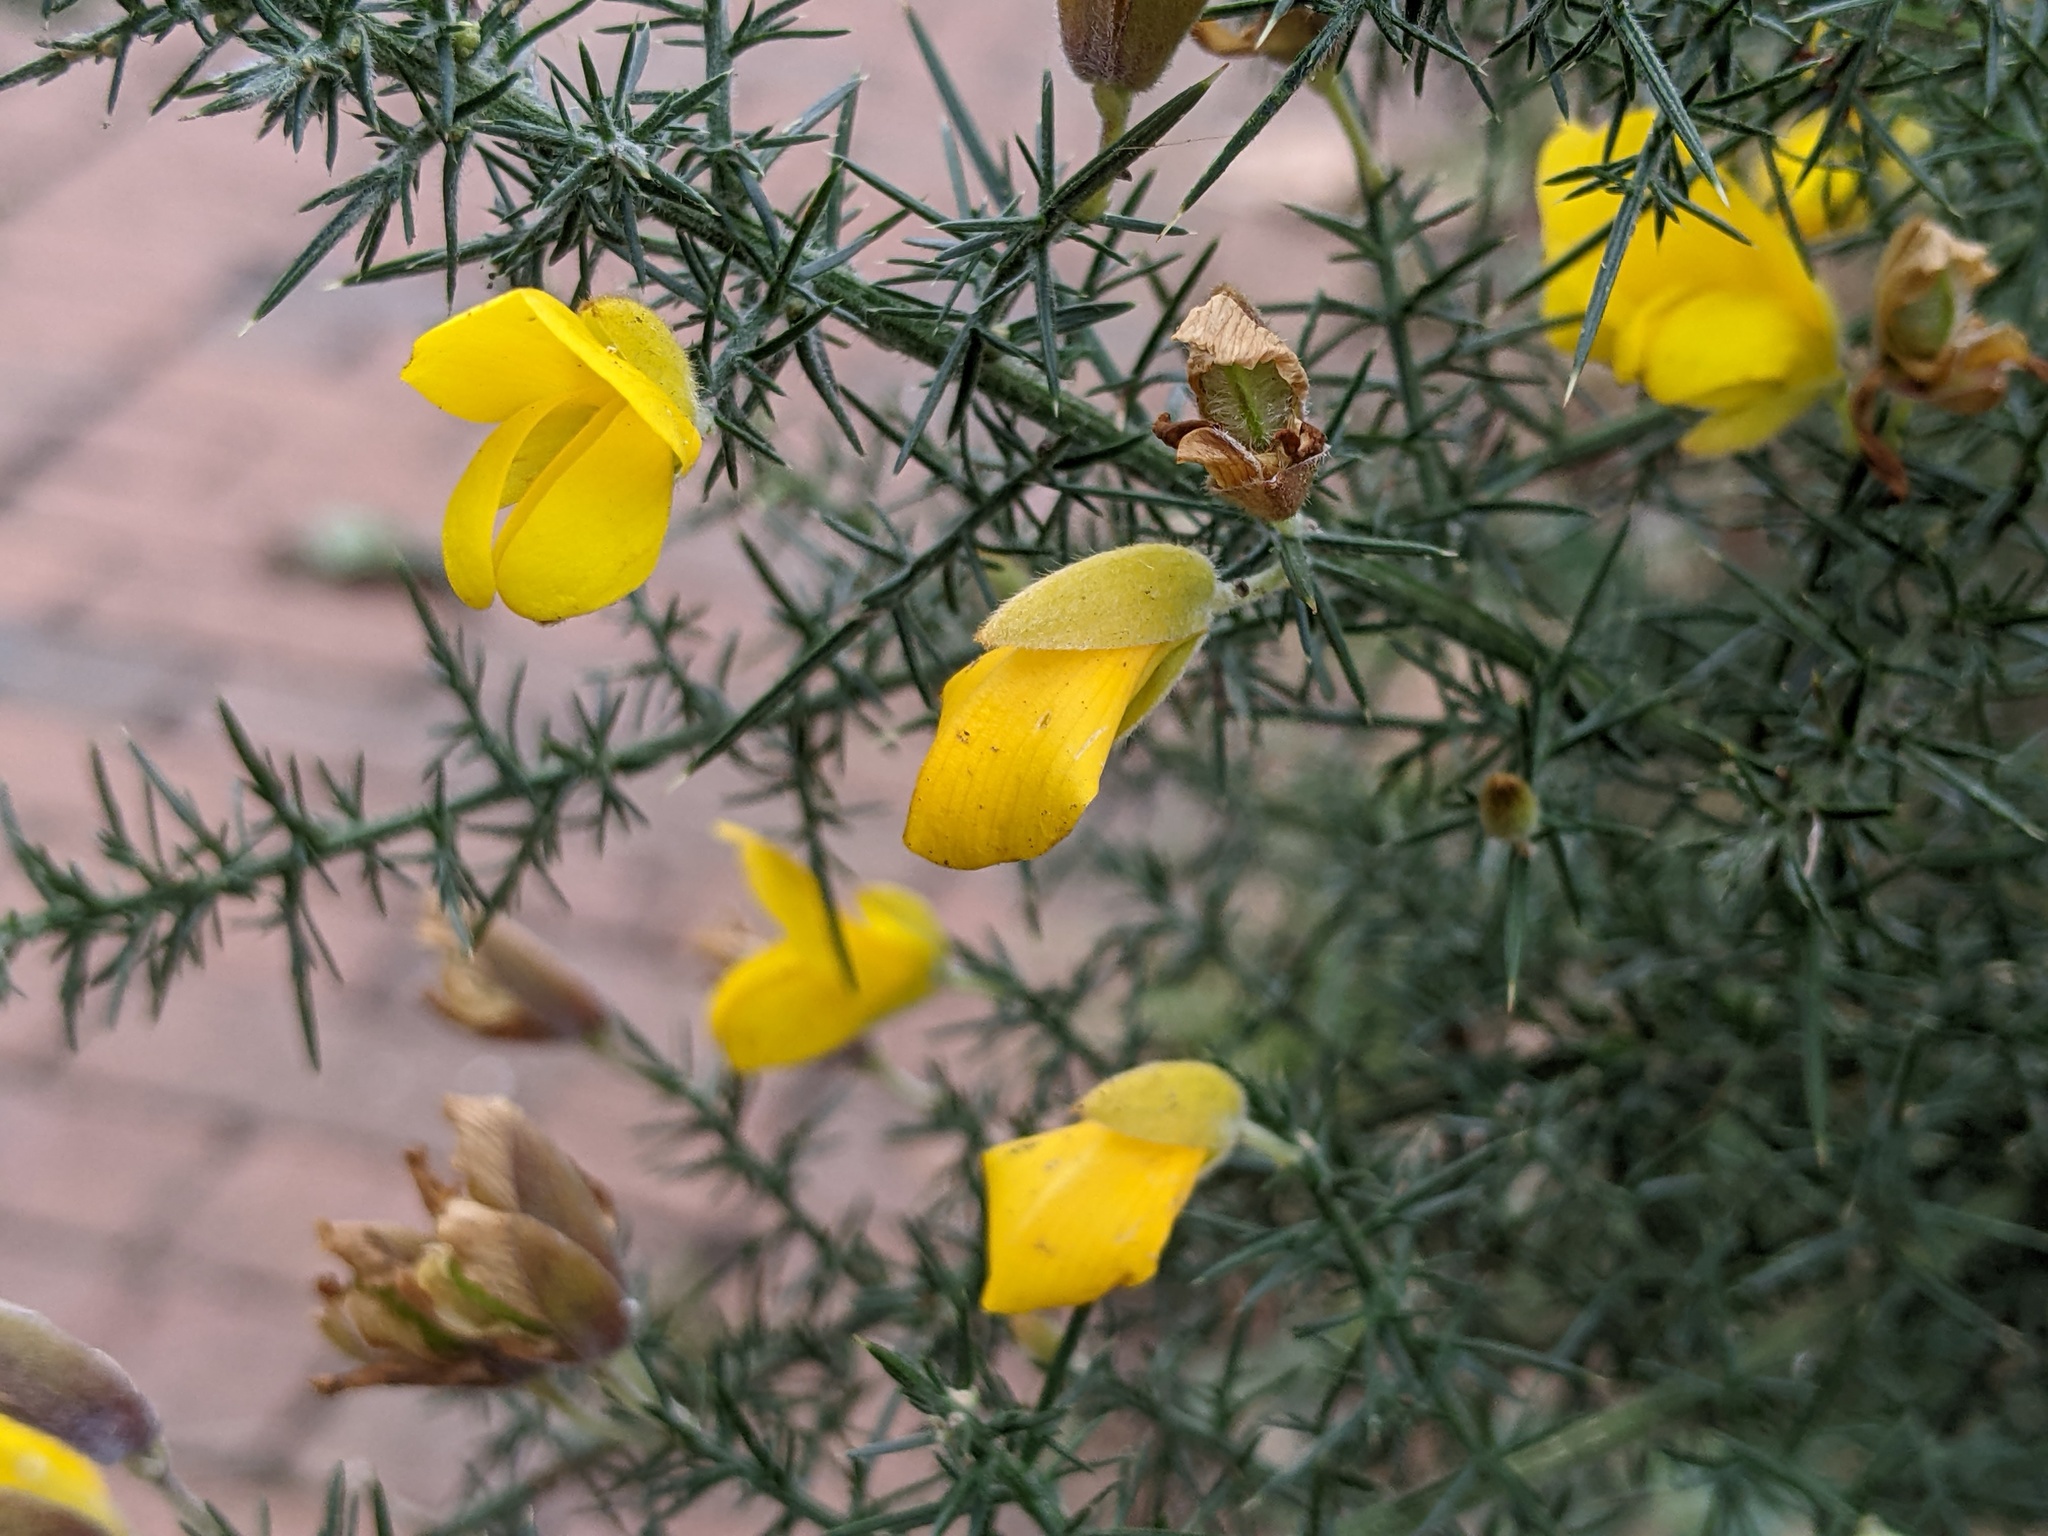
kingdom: Plantae
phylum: Tracheophyta
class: Magnoliopsida
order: Fabales
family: Fabaceae
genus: Ulex
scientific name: Ulex europaeus
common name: Common gorse
